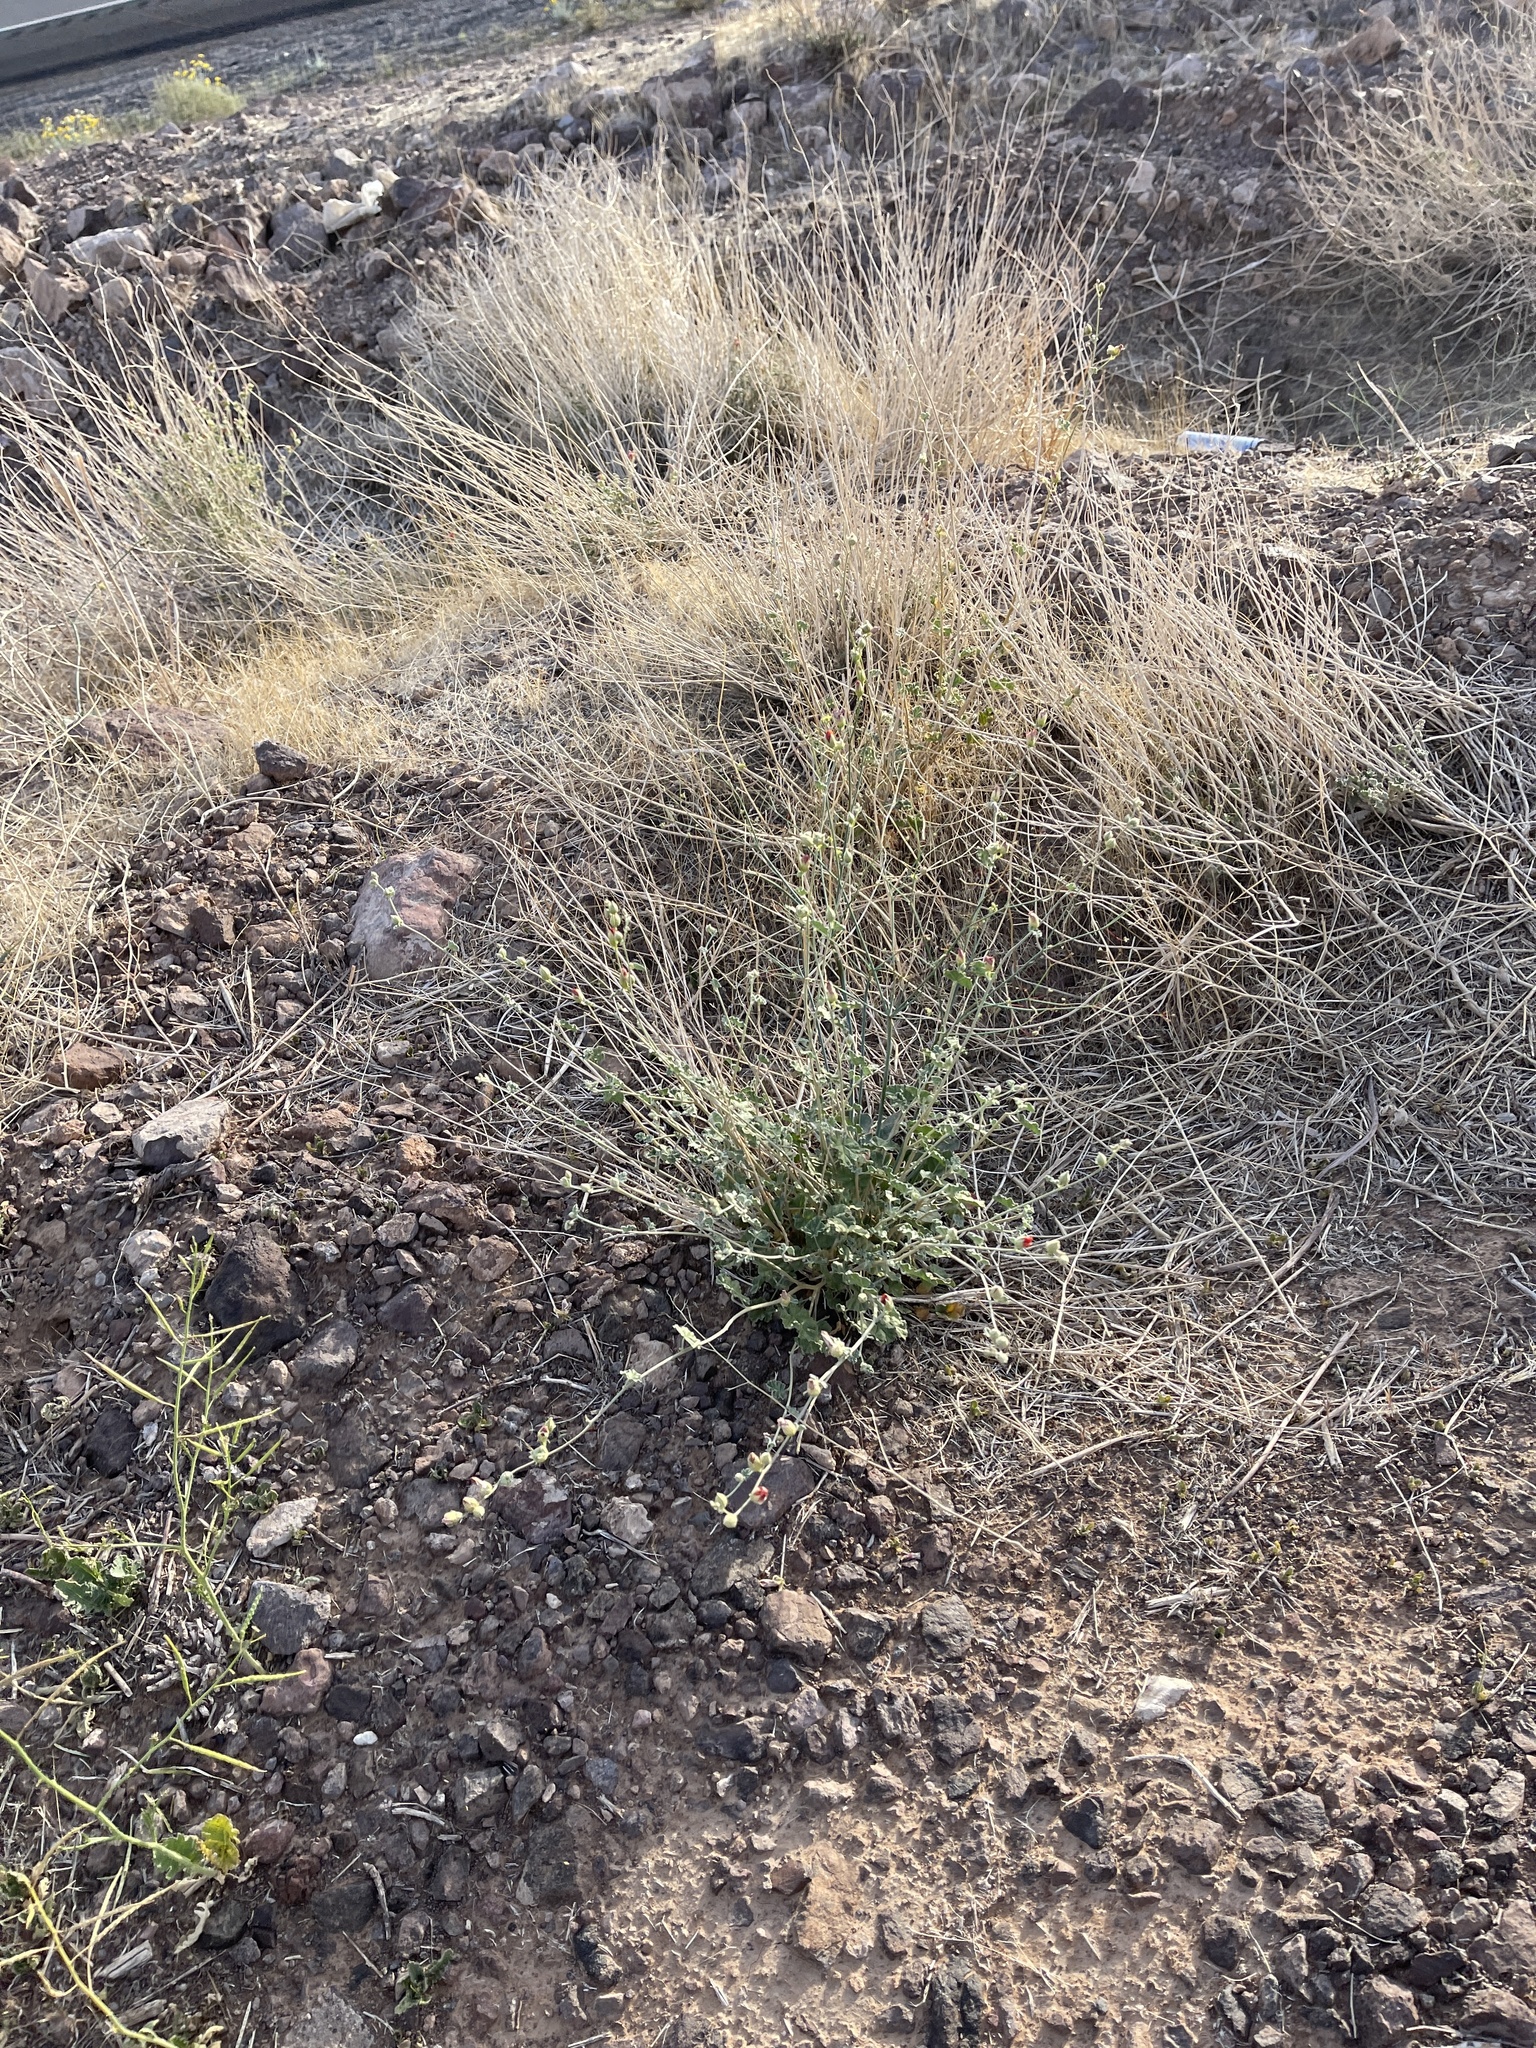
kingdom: Plantae
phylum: Tracheophyta
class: Magnoliopsida
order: Malvales
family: Malvaceae
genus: Sphaeralcea
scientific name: Sphaeralcea ambigua
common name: Apricot globe-mallow
